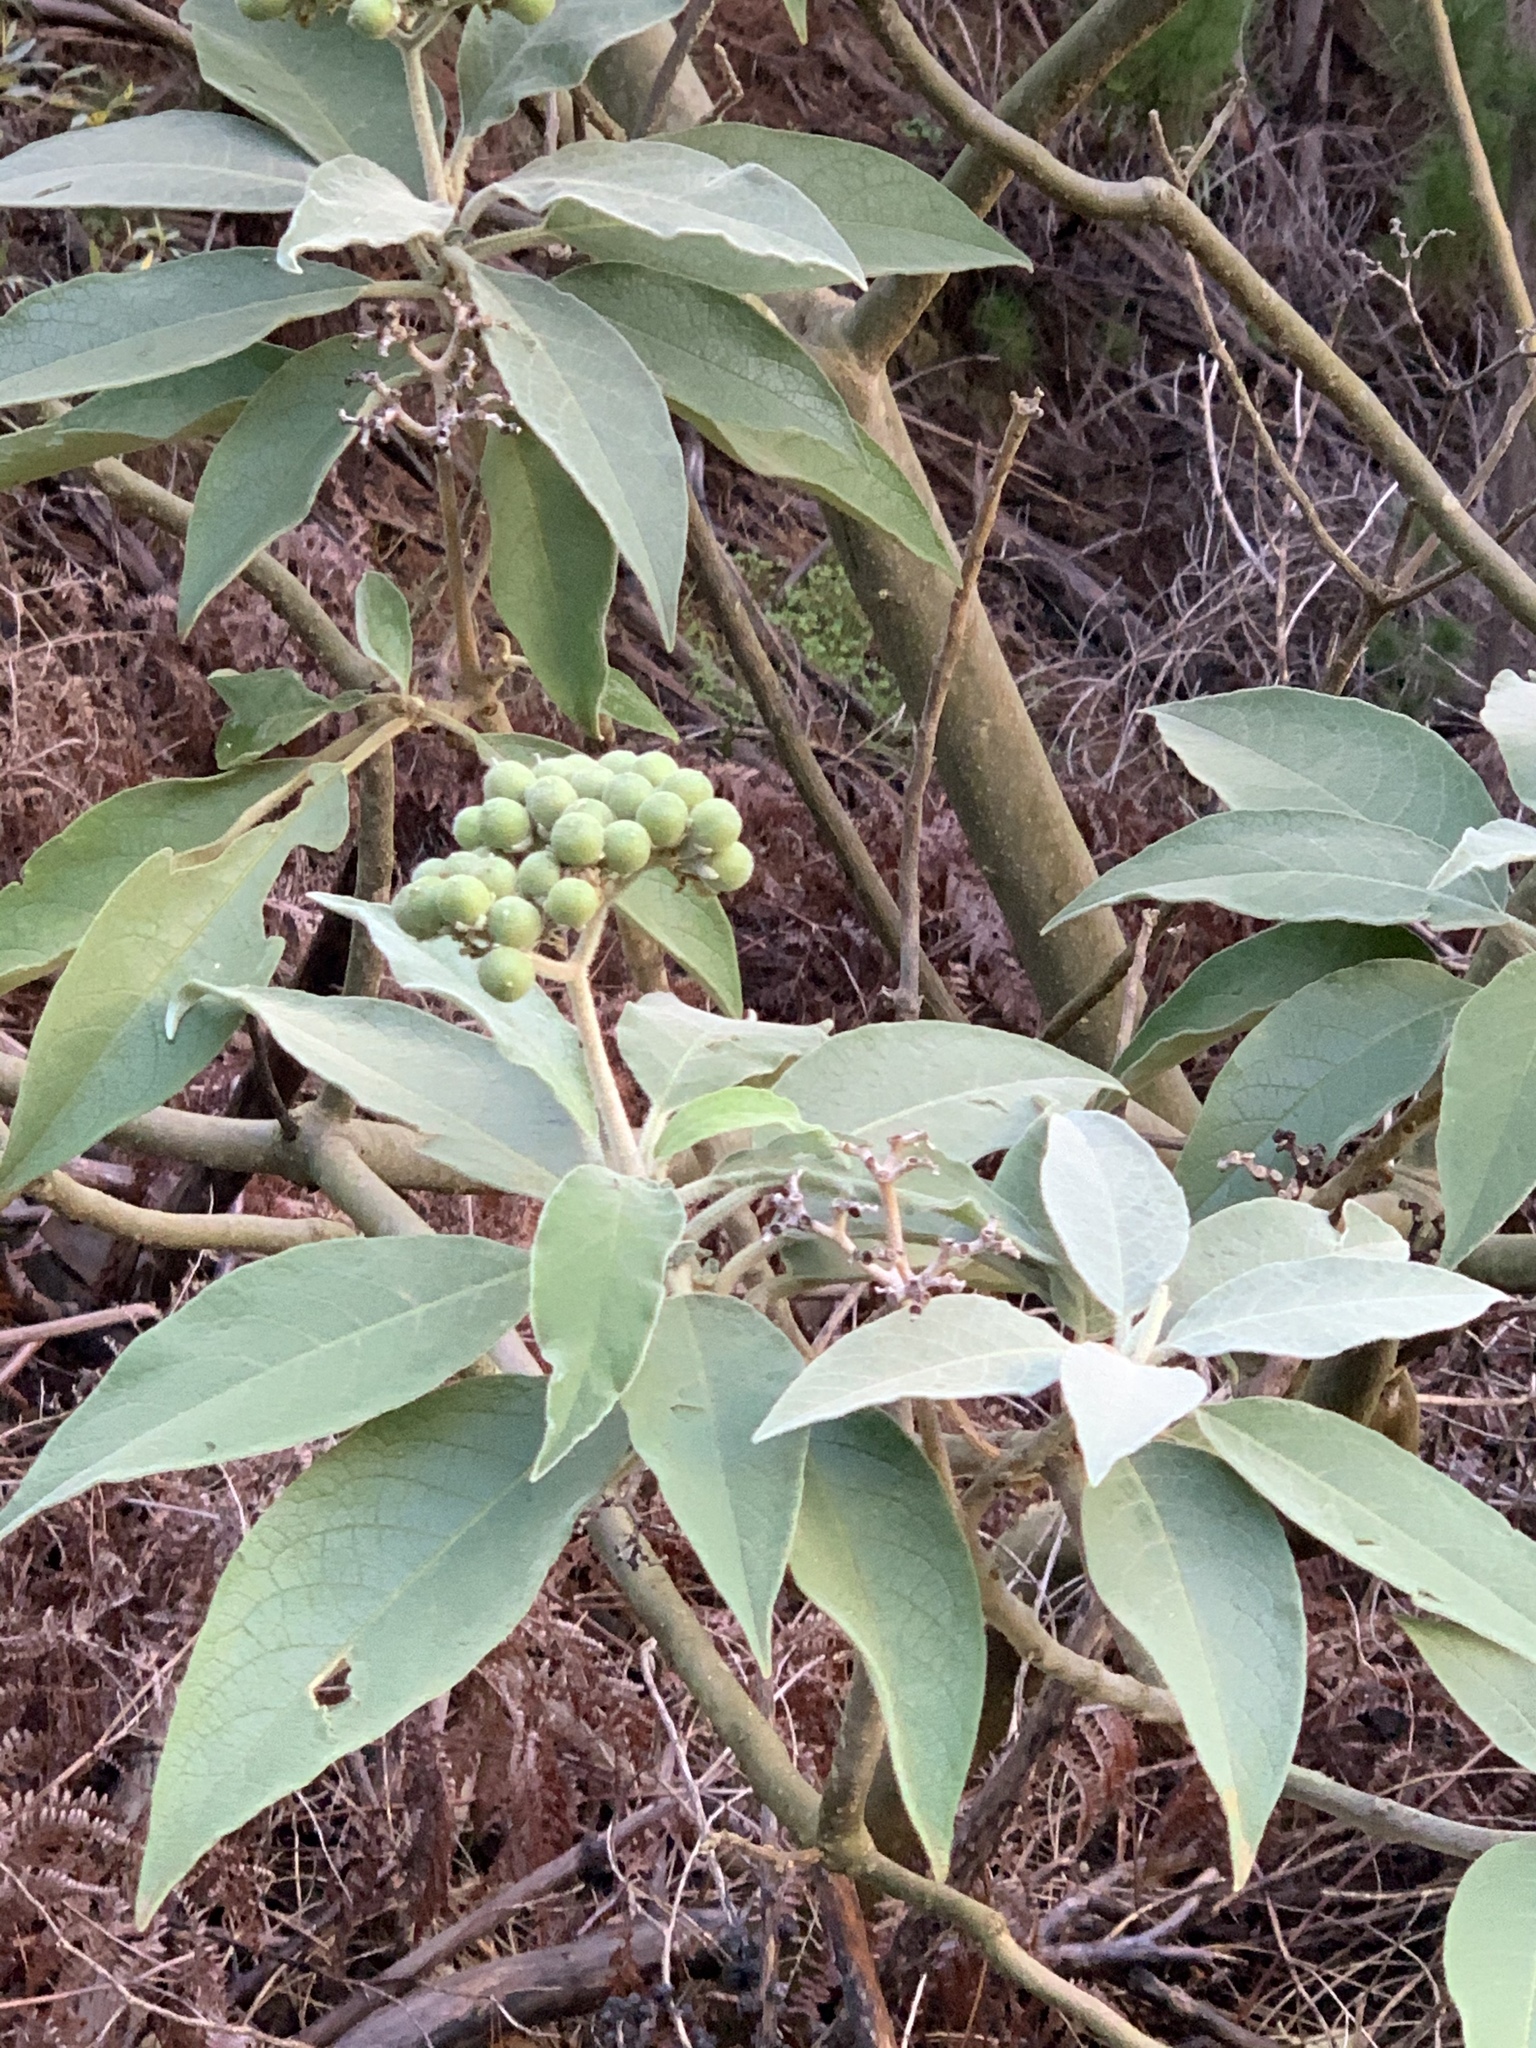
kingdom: Plantae
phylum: Tracheophyta
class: Magnoliopsida
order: Solanales
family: Solanaceae
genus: Solanum
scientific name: Solanum mauritianum
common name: Earleaf nightshade
